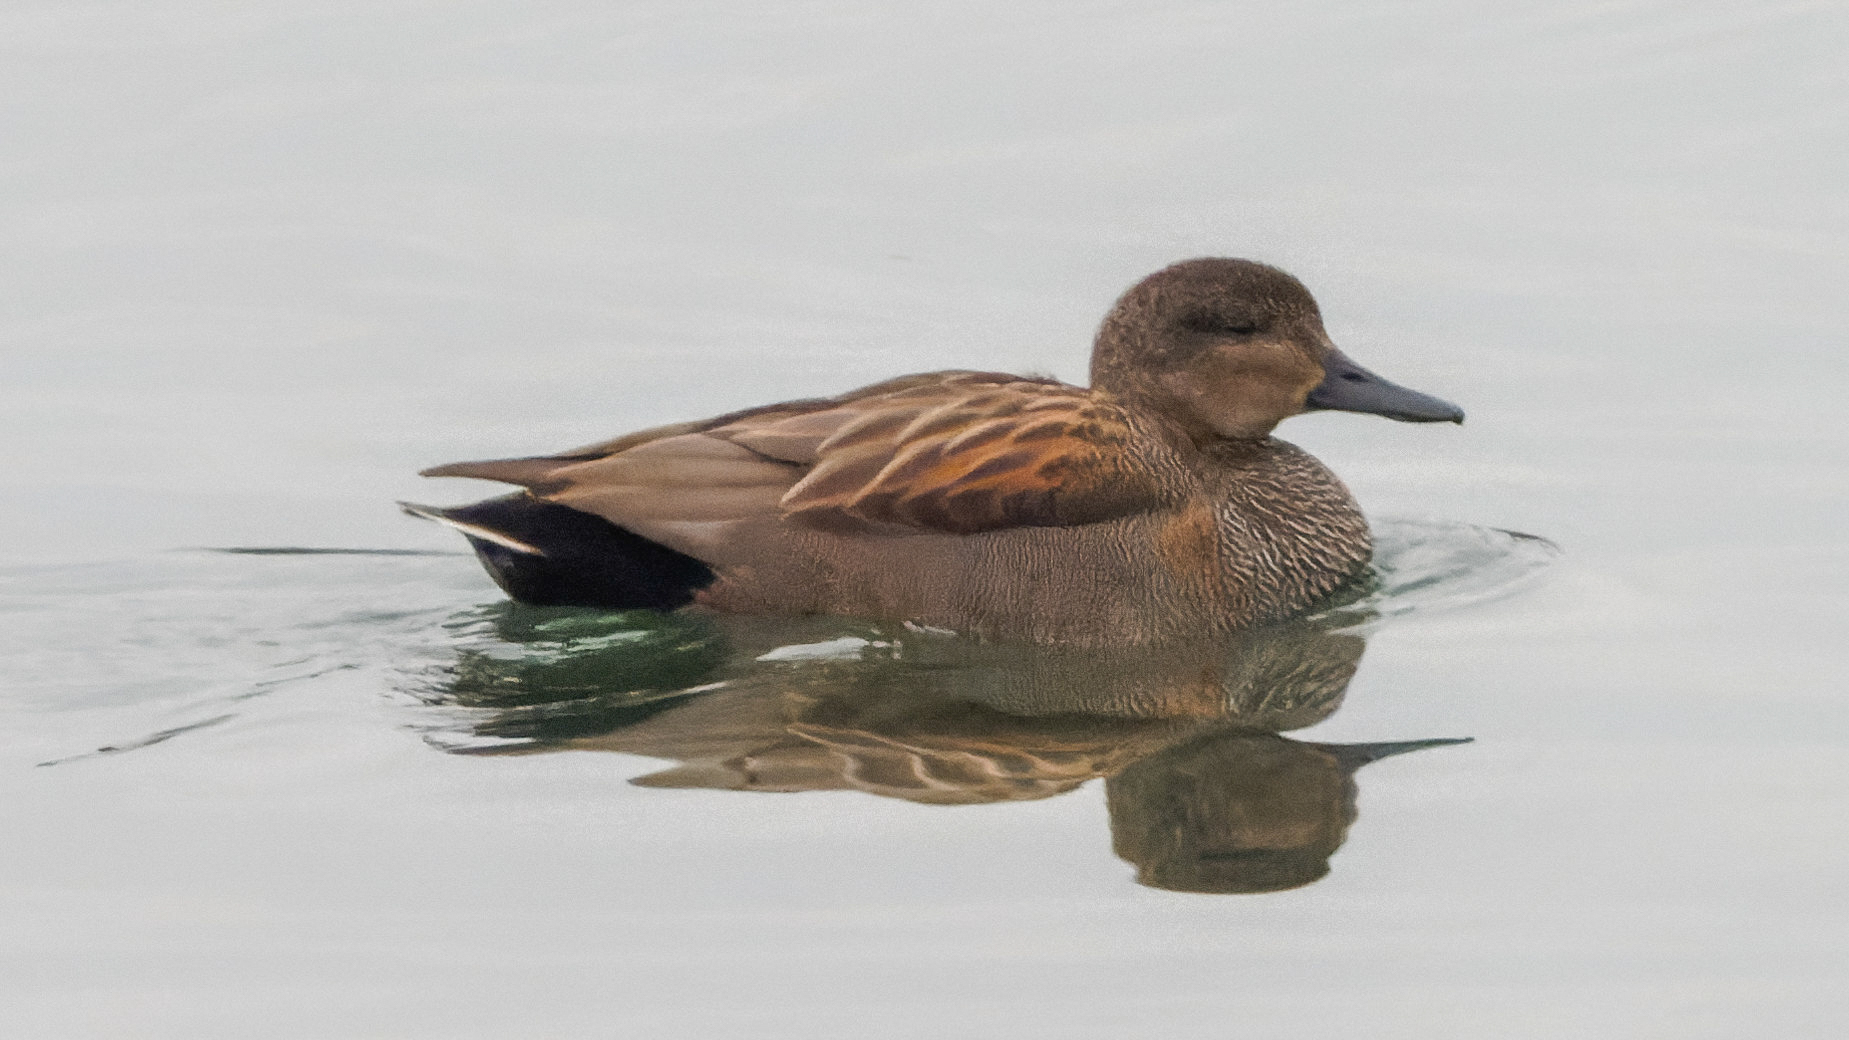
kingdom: Animalia
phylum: Chordata
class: Aves
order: Anseriformes
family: Anatidae
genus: Mareca
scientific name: Mareca strepera
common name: Gadwall
